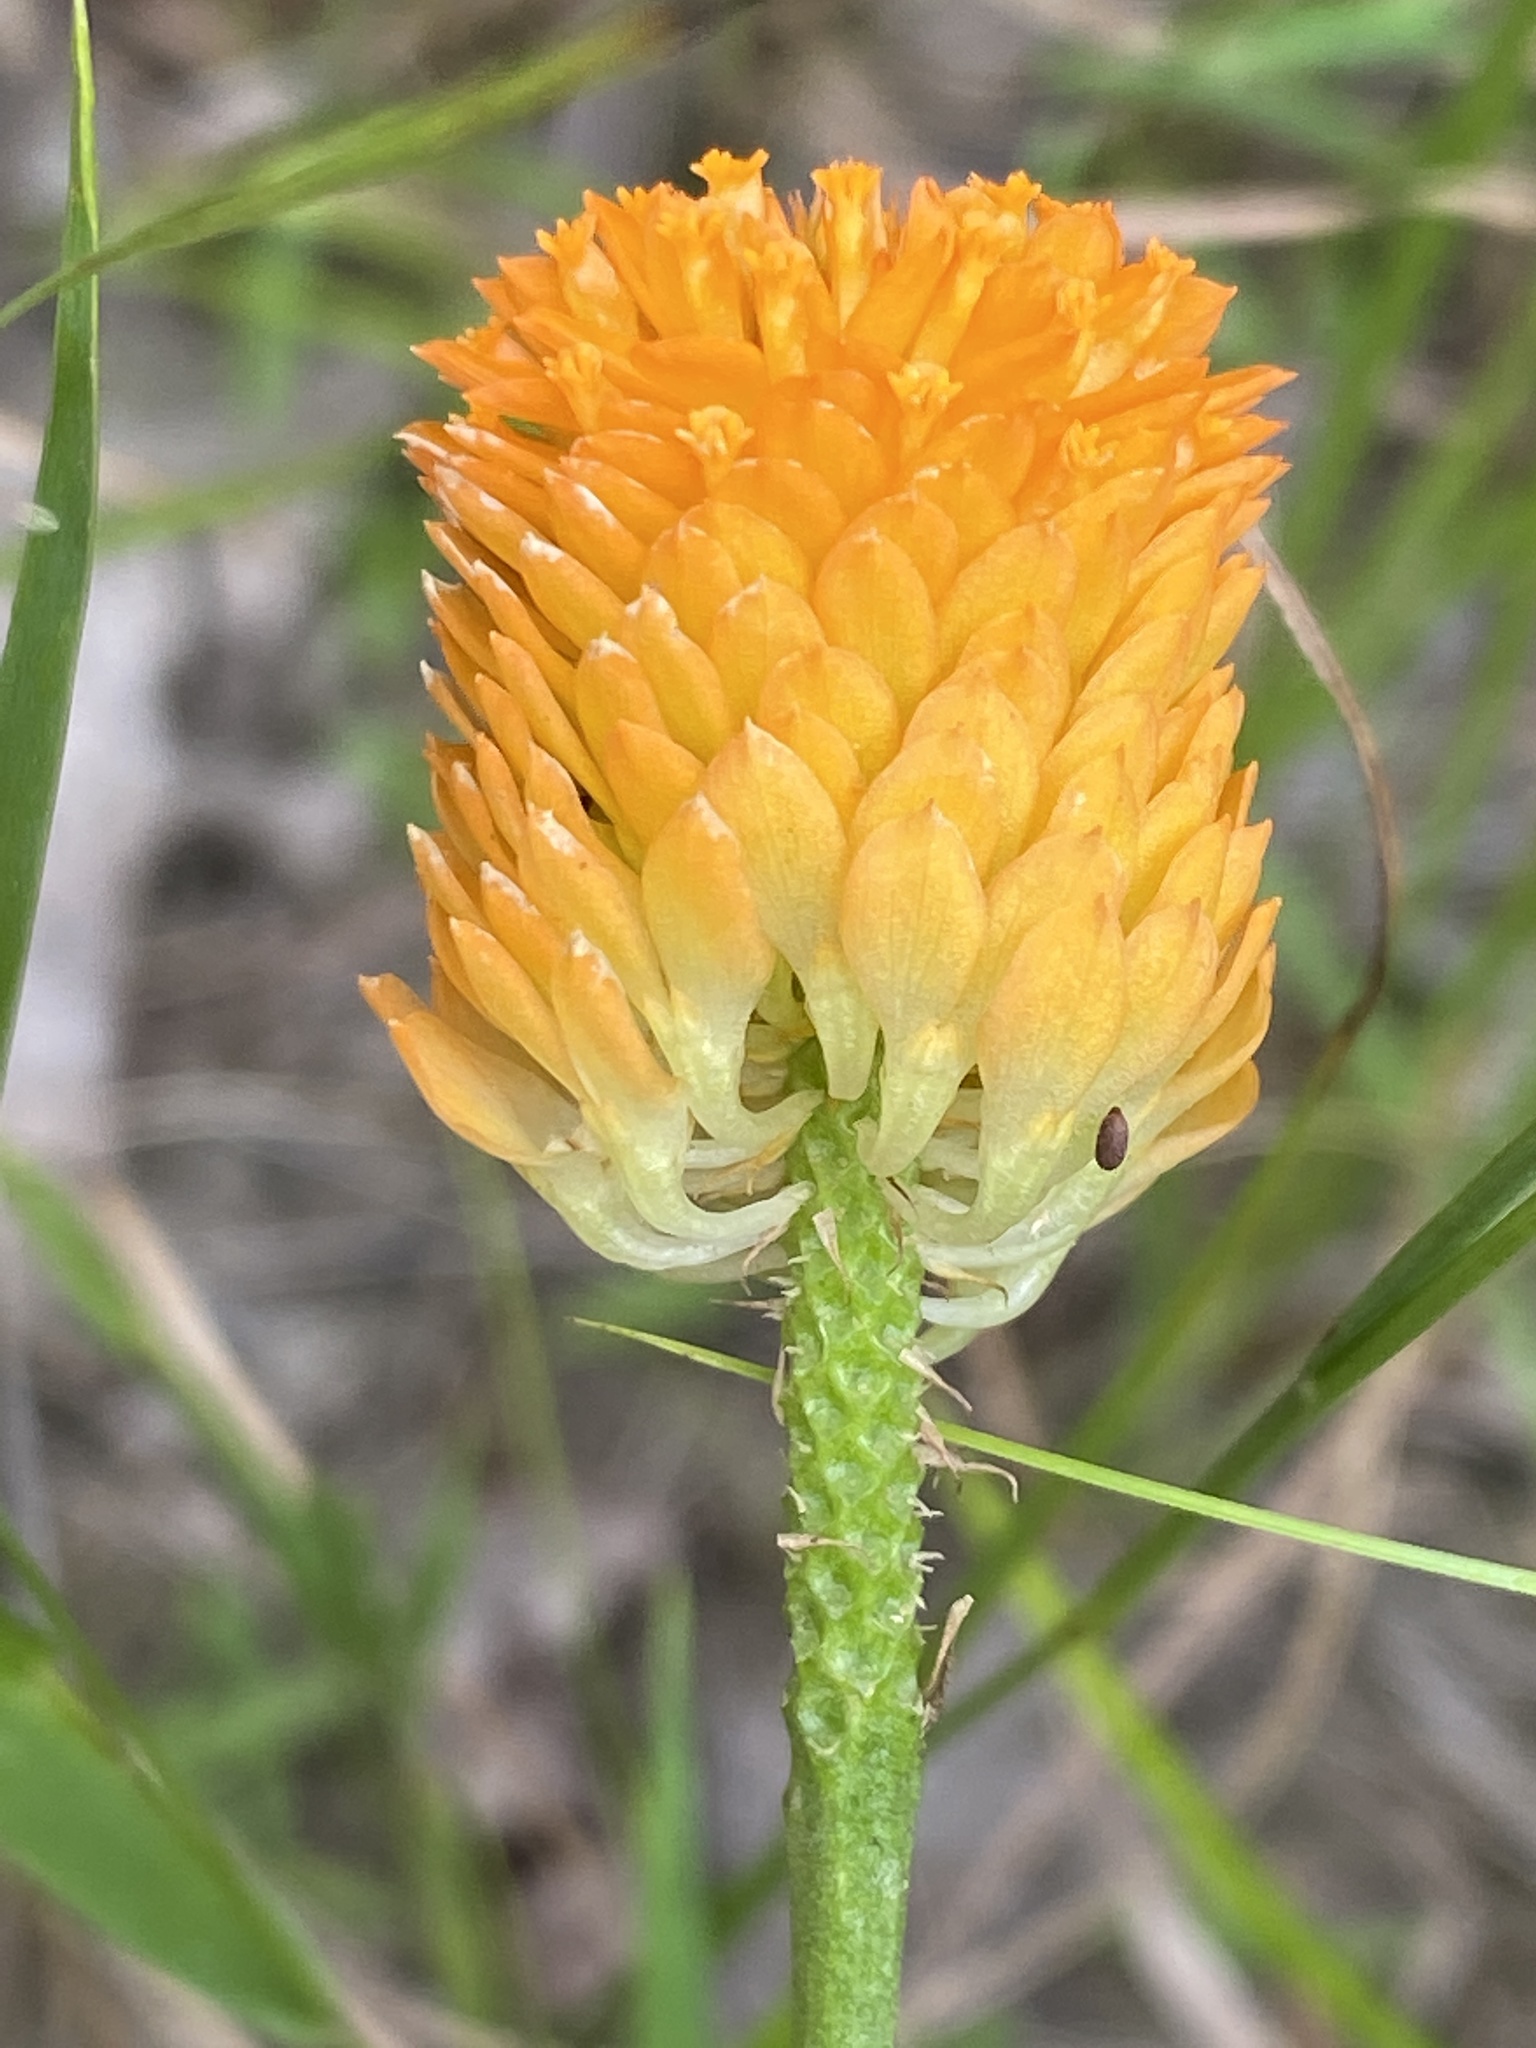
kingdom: Plantae
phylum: Tracheophyta
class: Magnoliopsida
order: Fabales
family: Polygalaceae
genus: Polygala
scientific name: Polygala lutea
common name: Orange milkwort
